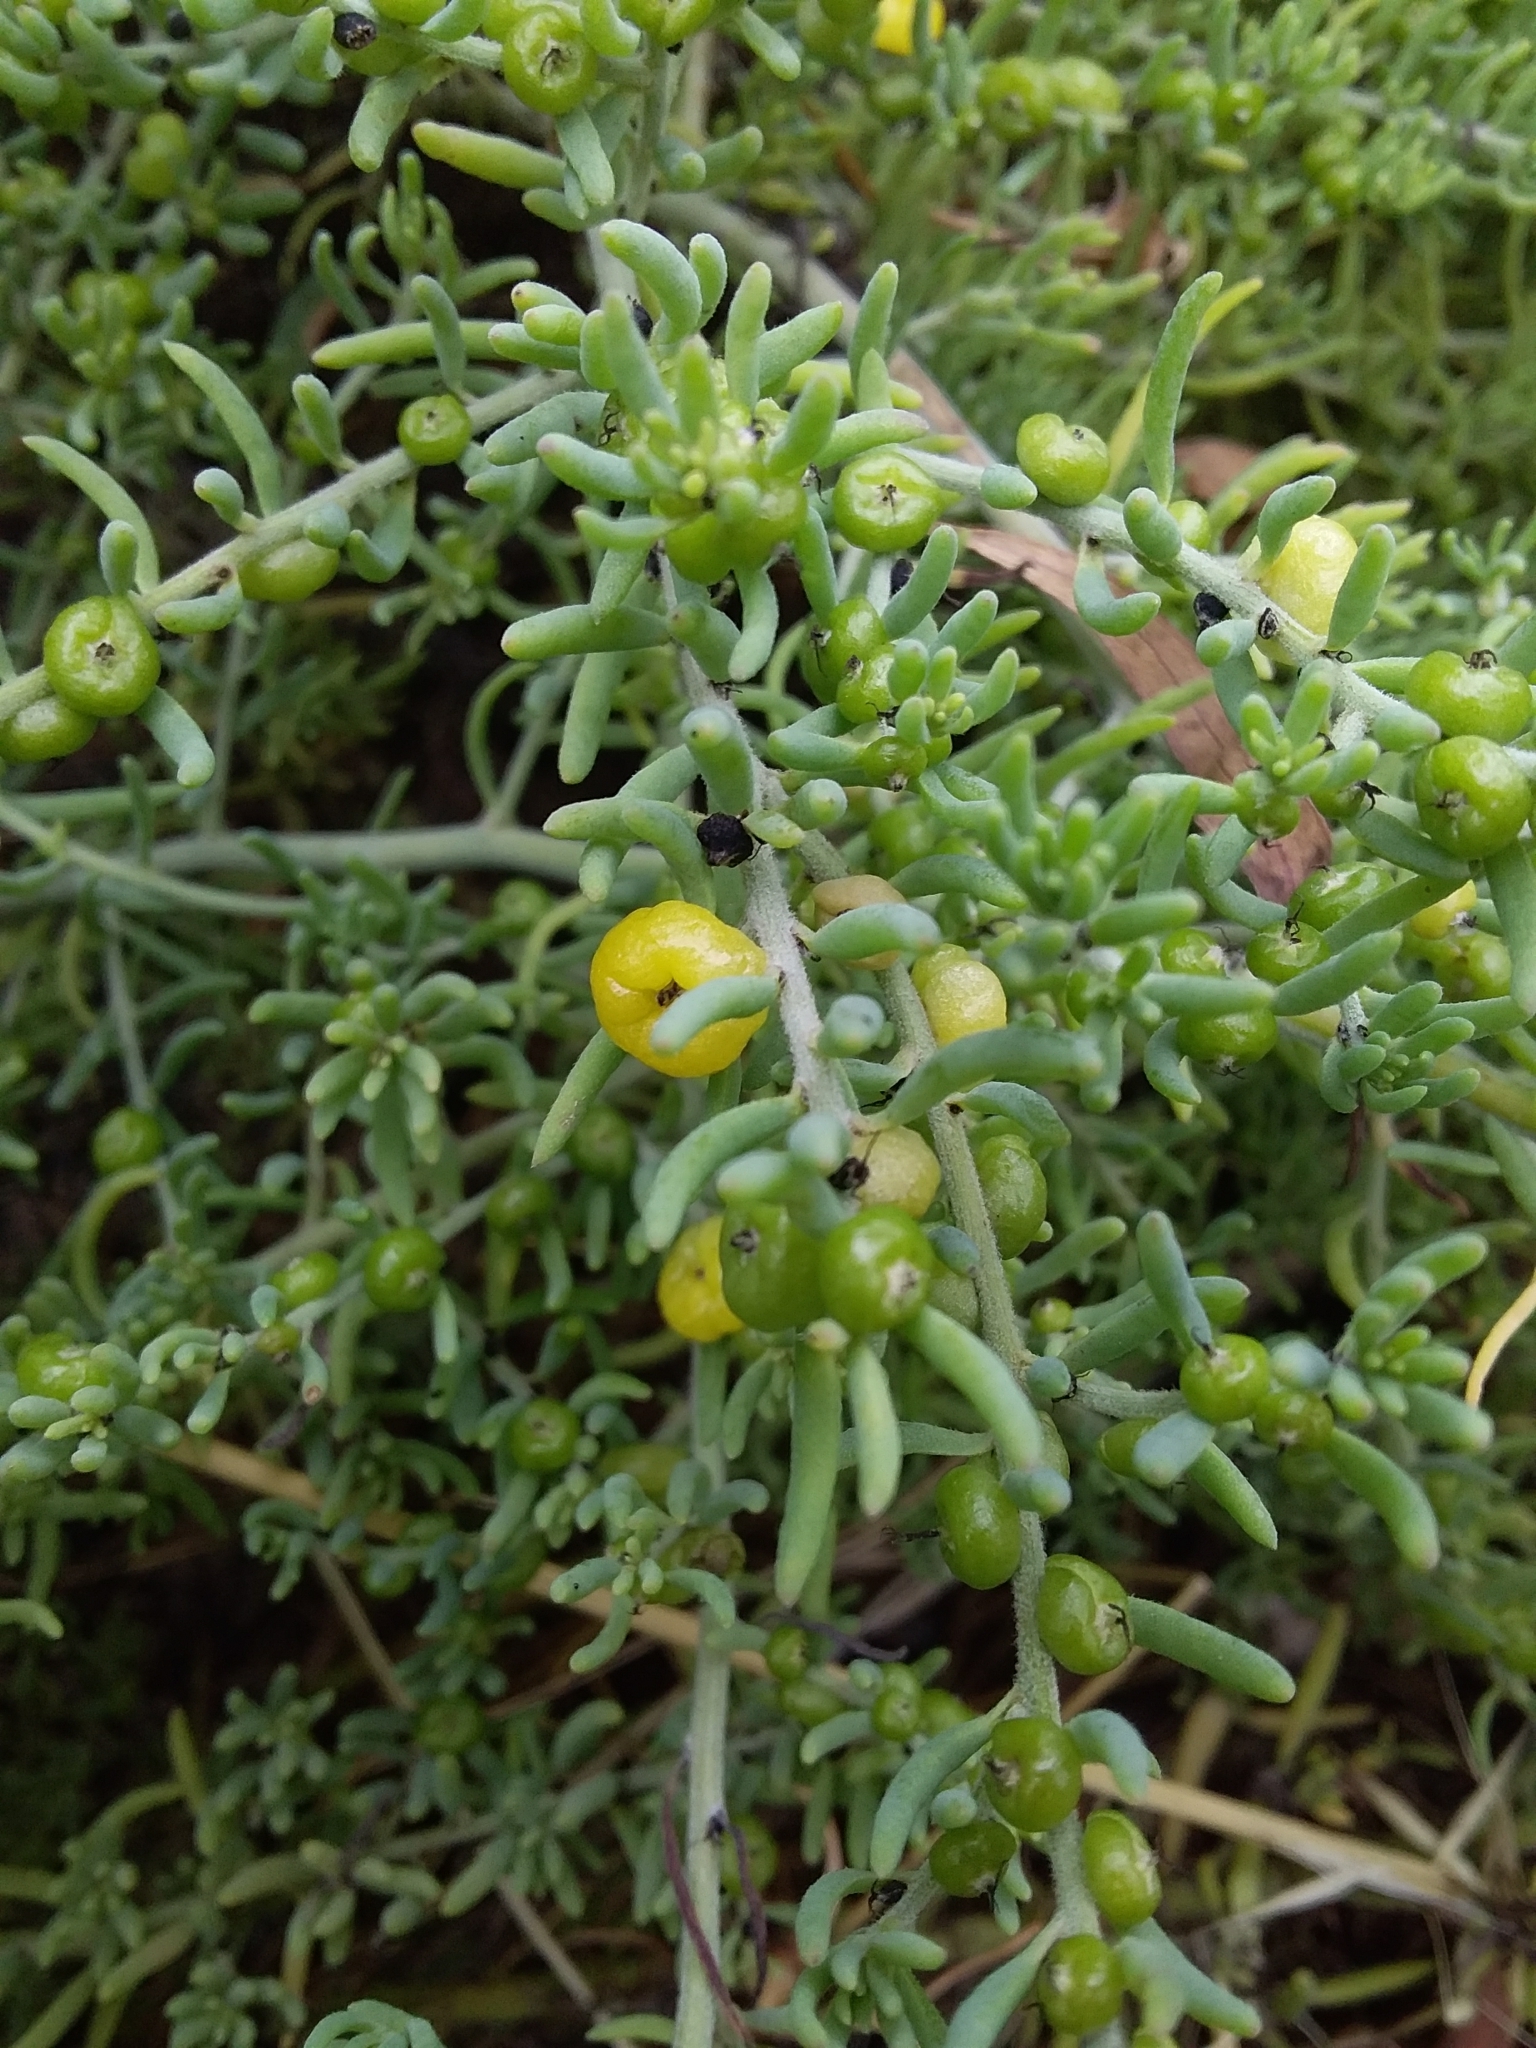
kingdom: Plantae
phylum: Tracheophyta
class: Magnoliopsida
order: Caryophyllales
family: Amaranthaceae
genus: Enchylaena
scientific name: Enchylaena tomentosa
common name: Ruby saltbush
